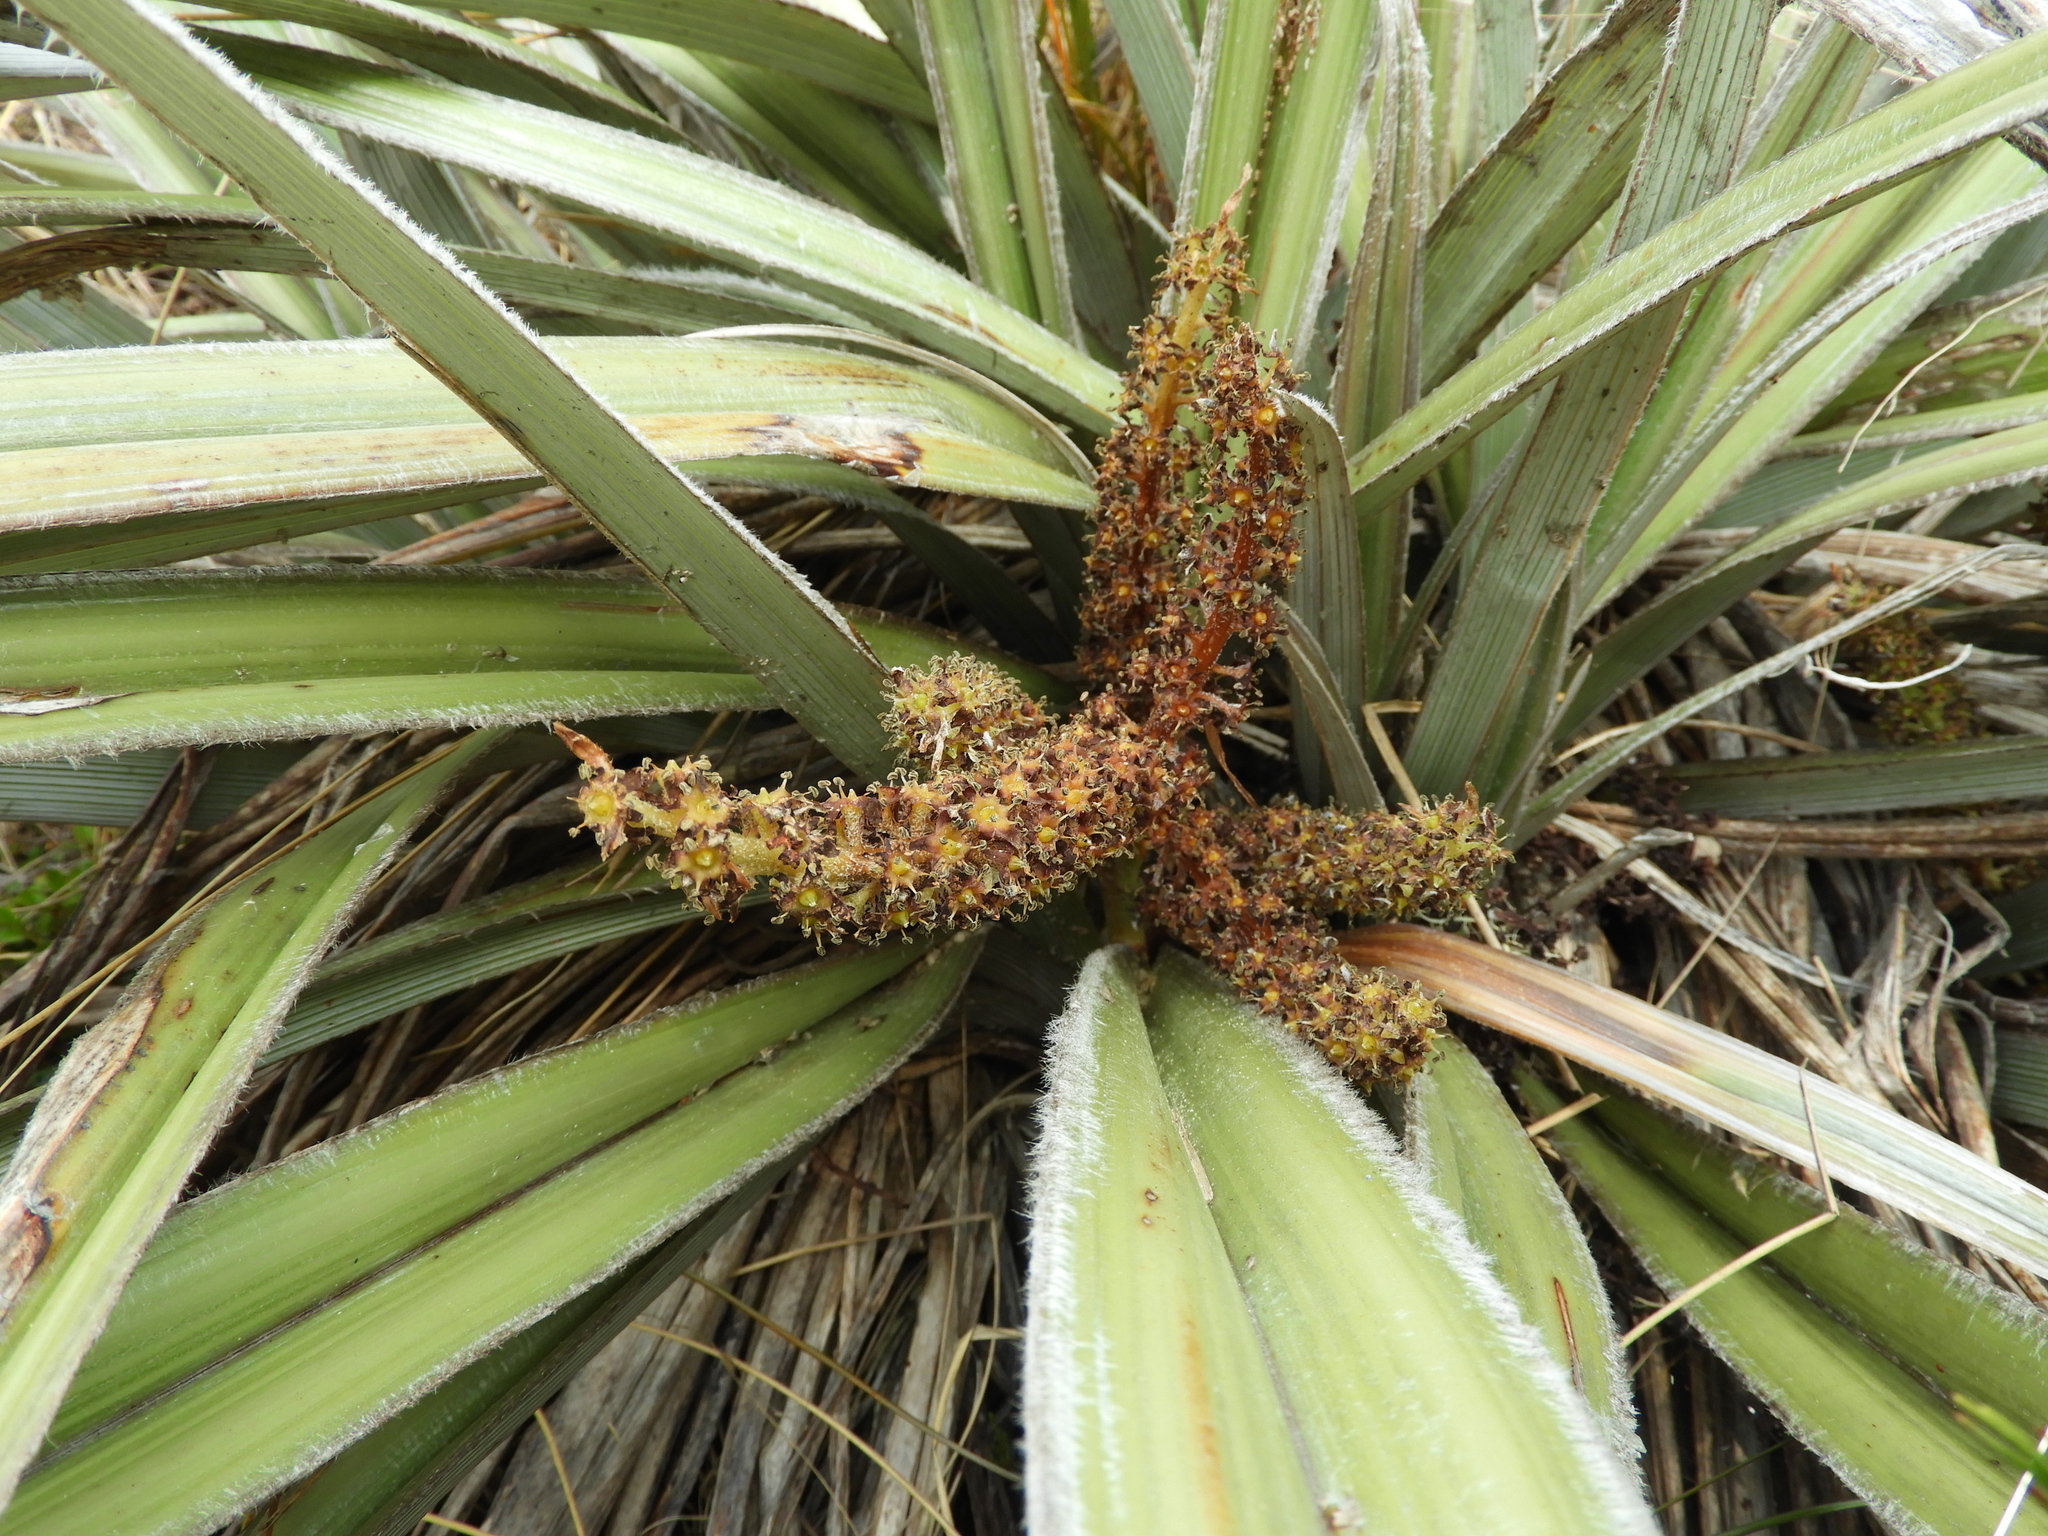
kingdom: Plantae
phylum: Tracheophyta
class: Liliopsida
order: Asparagales
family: Asteliaceae
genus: Astelia
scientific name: Astelia nervosa
